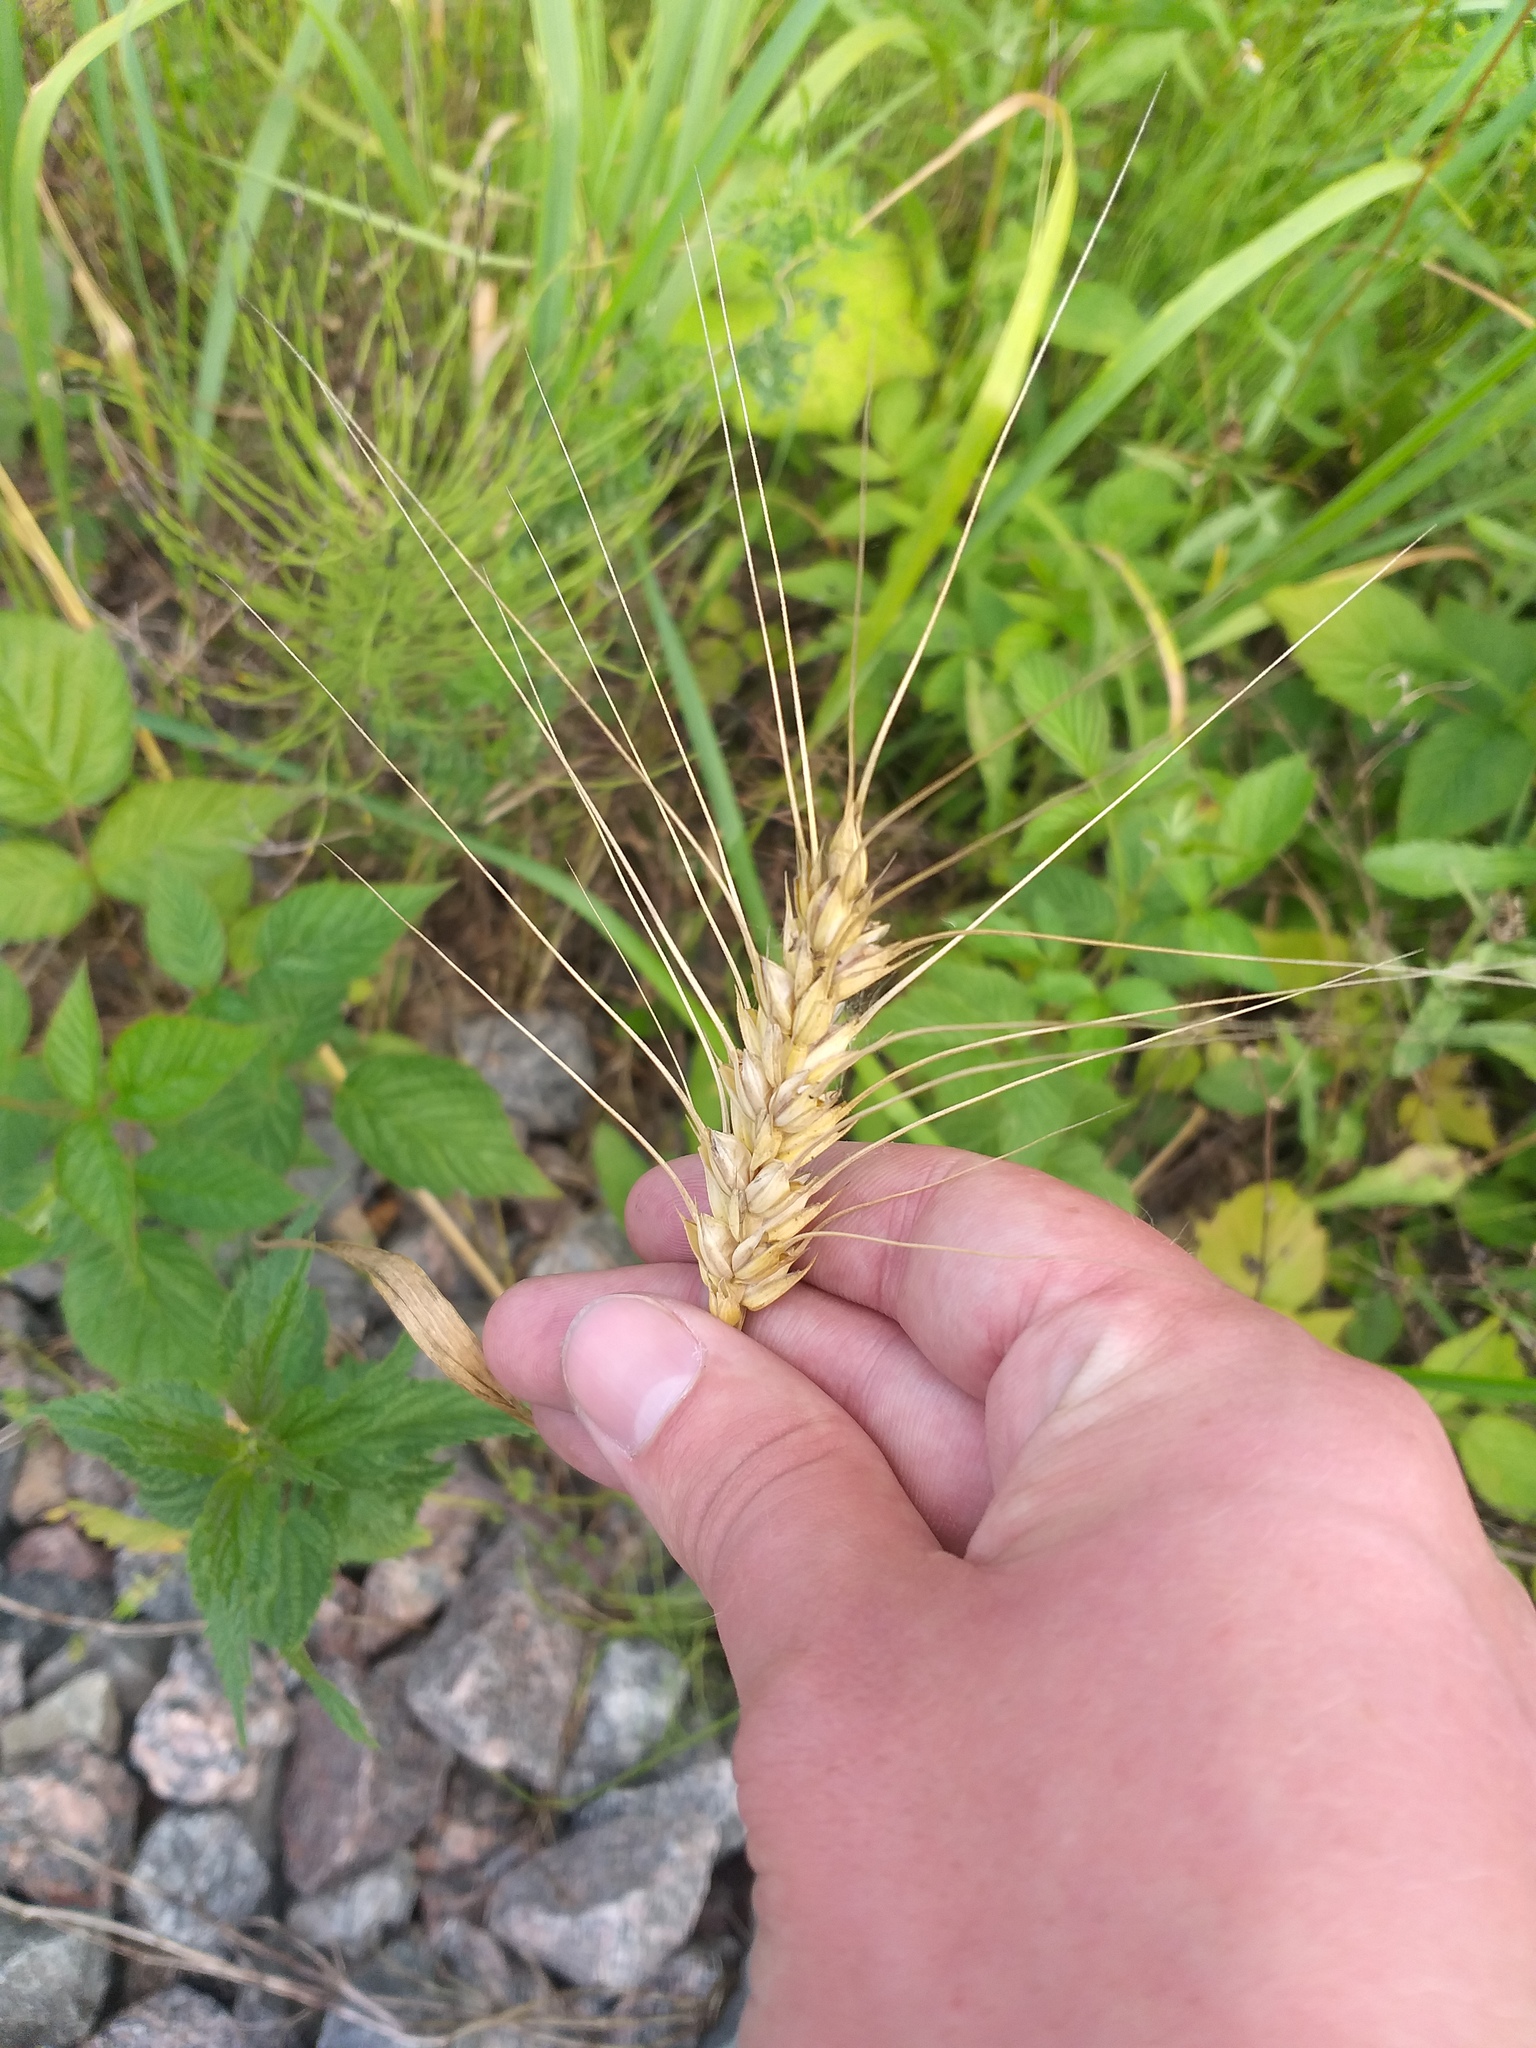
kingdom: Plantae
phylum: Tracheophyta
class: Liliopsida
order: Poales
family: Poaceae
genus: Triticum
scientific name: Triticum aestivum
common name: Common wheat
